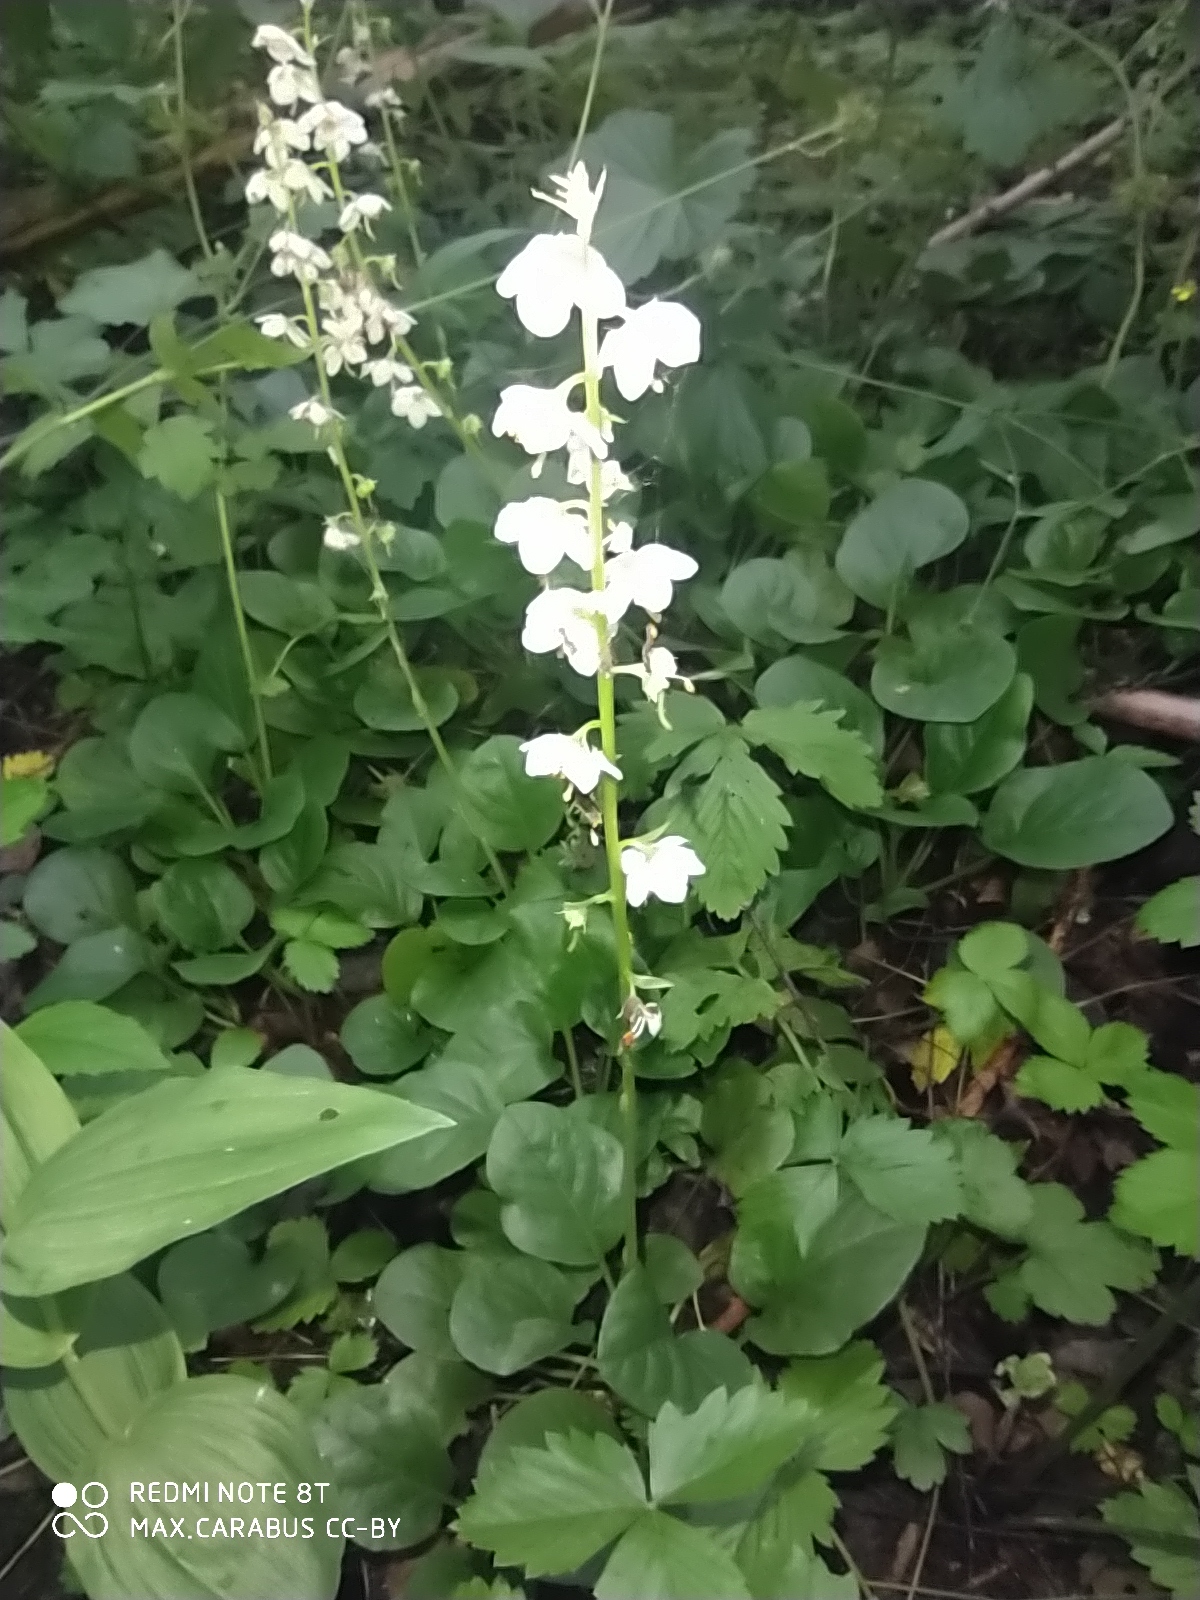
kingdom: Plantae
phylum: Tracheophyta
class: Magnoliopsida
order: Ericales
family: Ericaceae
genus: Pyrola
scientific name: Pyrola rotundifolia
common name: Round-leaved wintergreen
